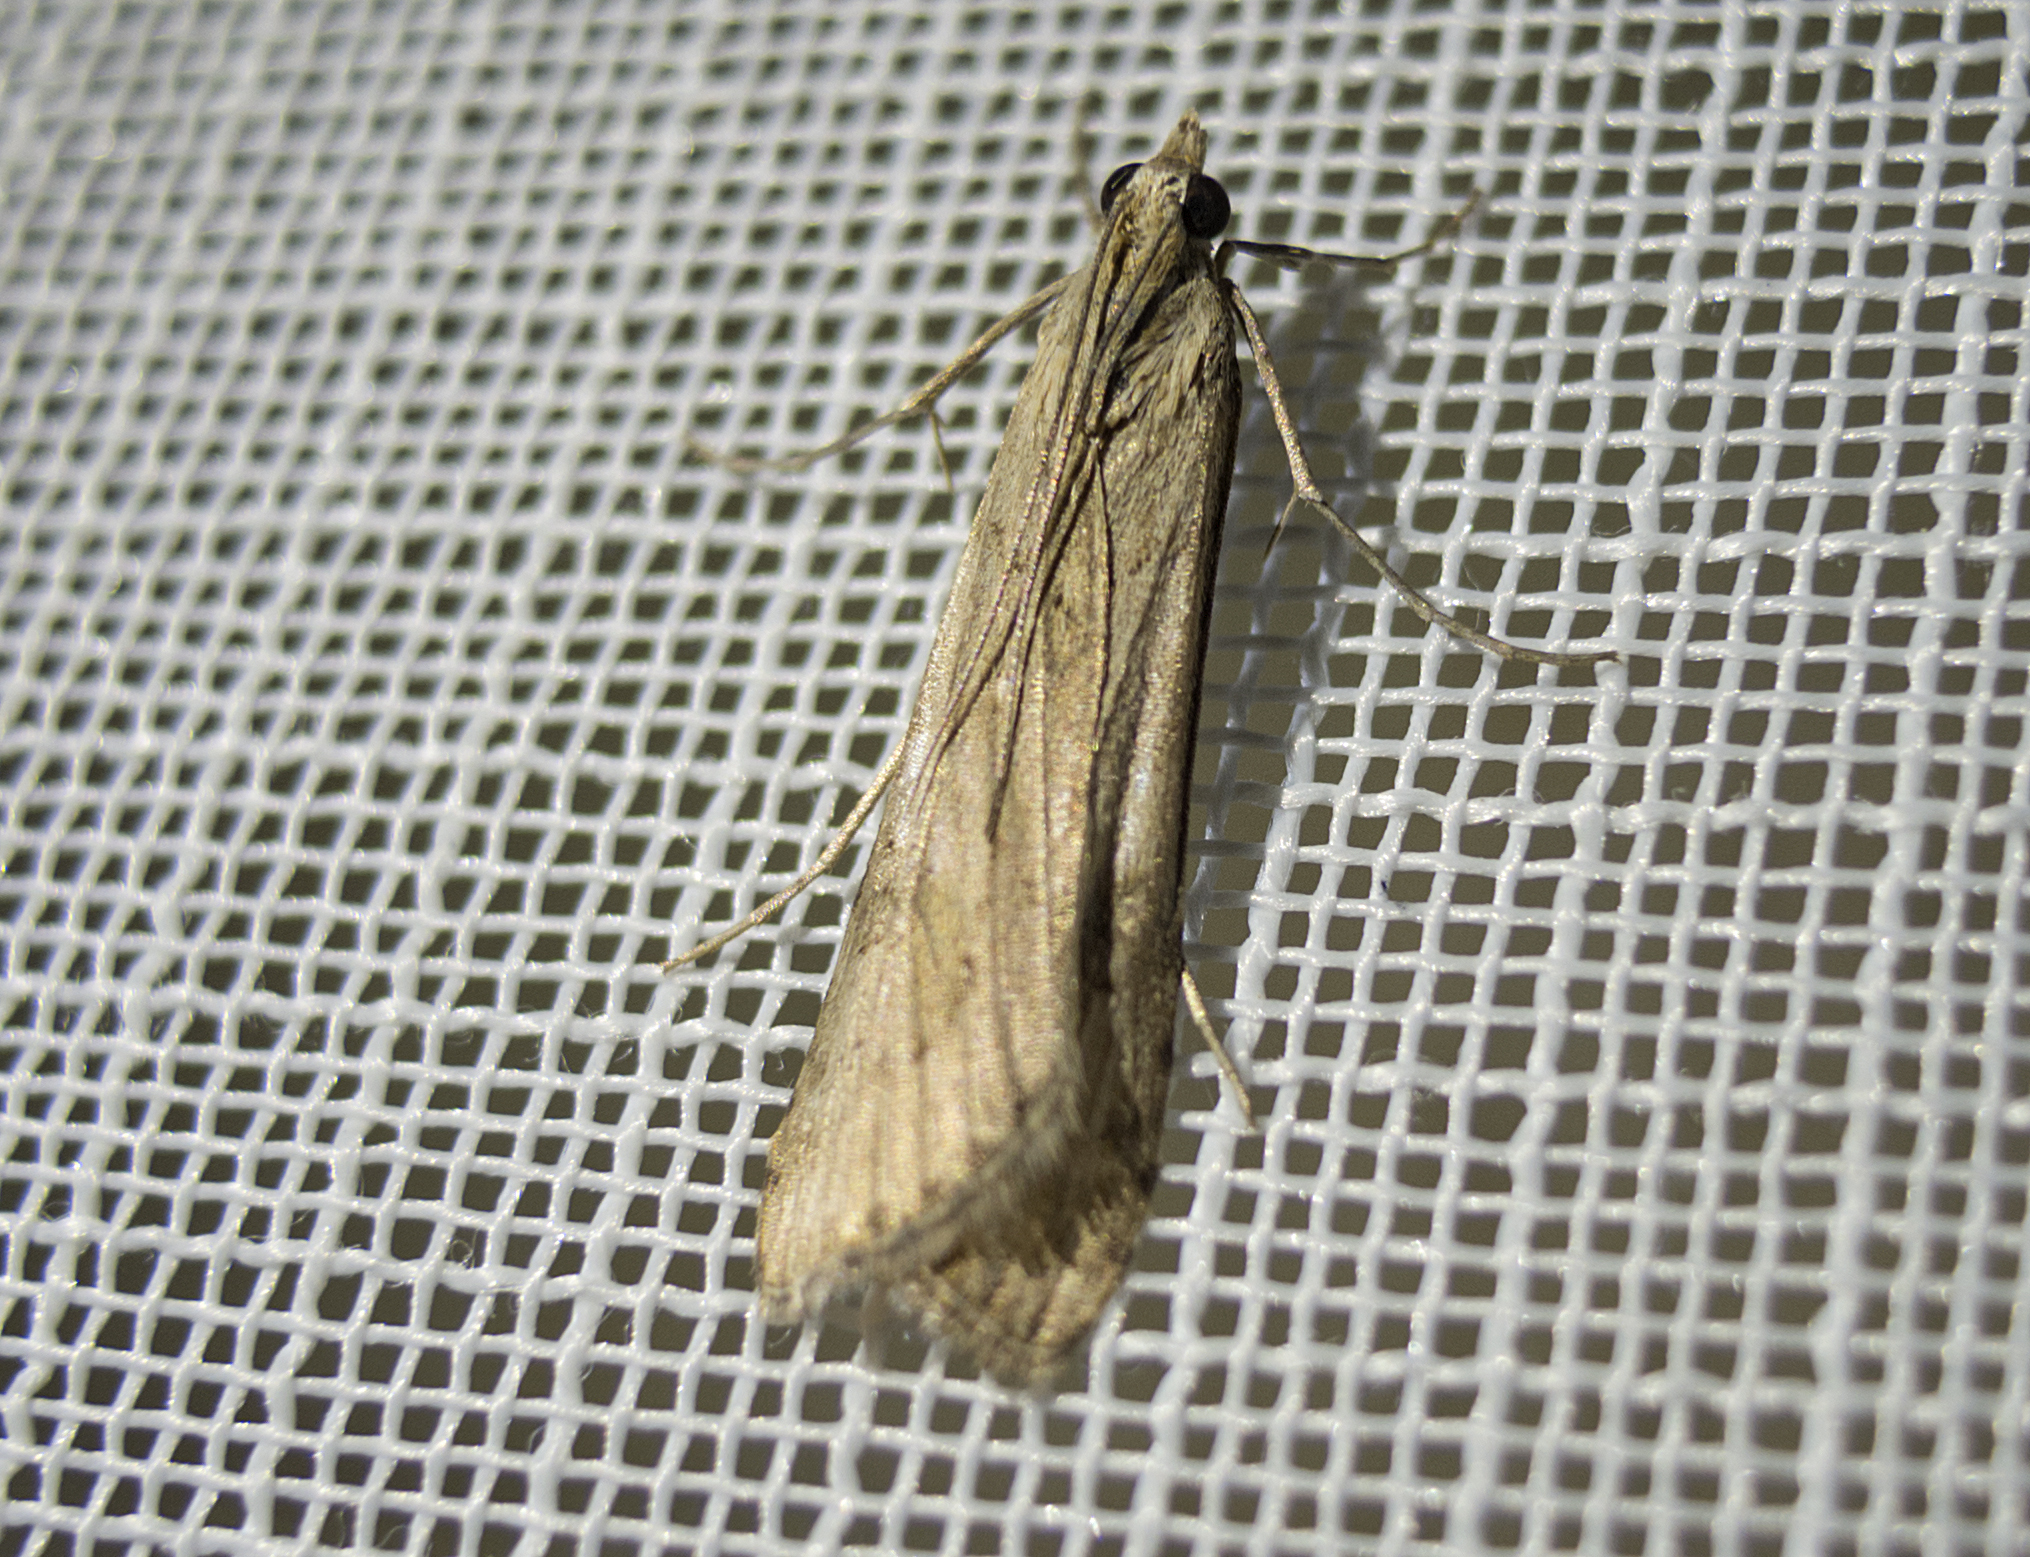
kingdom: Animalia
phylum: Arthropoda
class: Insecta
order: Lepidoptera
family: Crambidae
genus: Nomophila
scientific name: Nomophila noctuella
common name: Rush veneer
